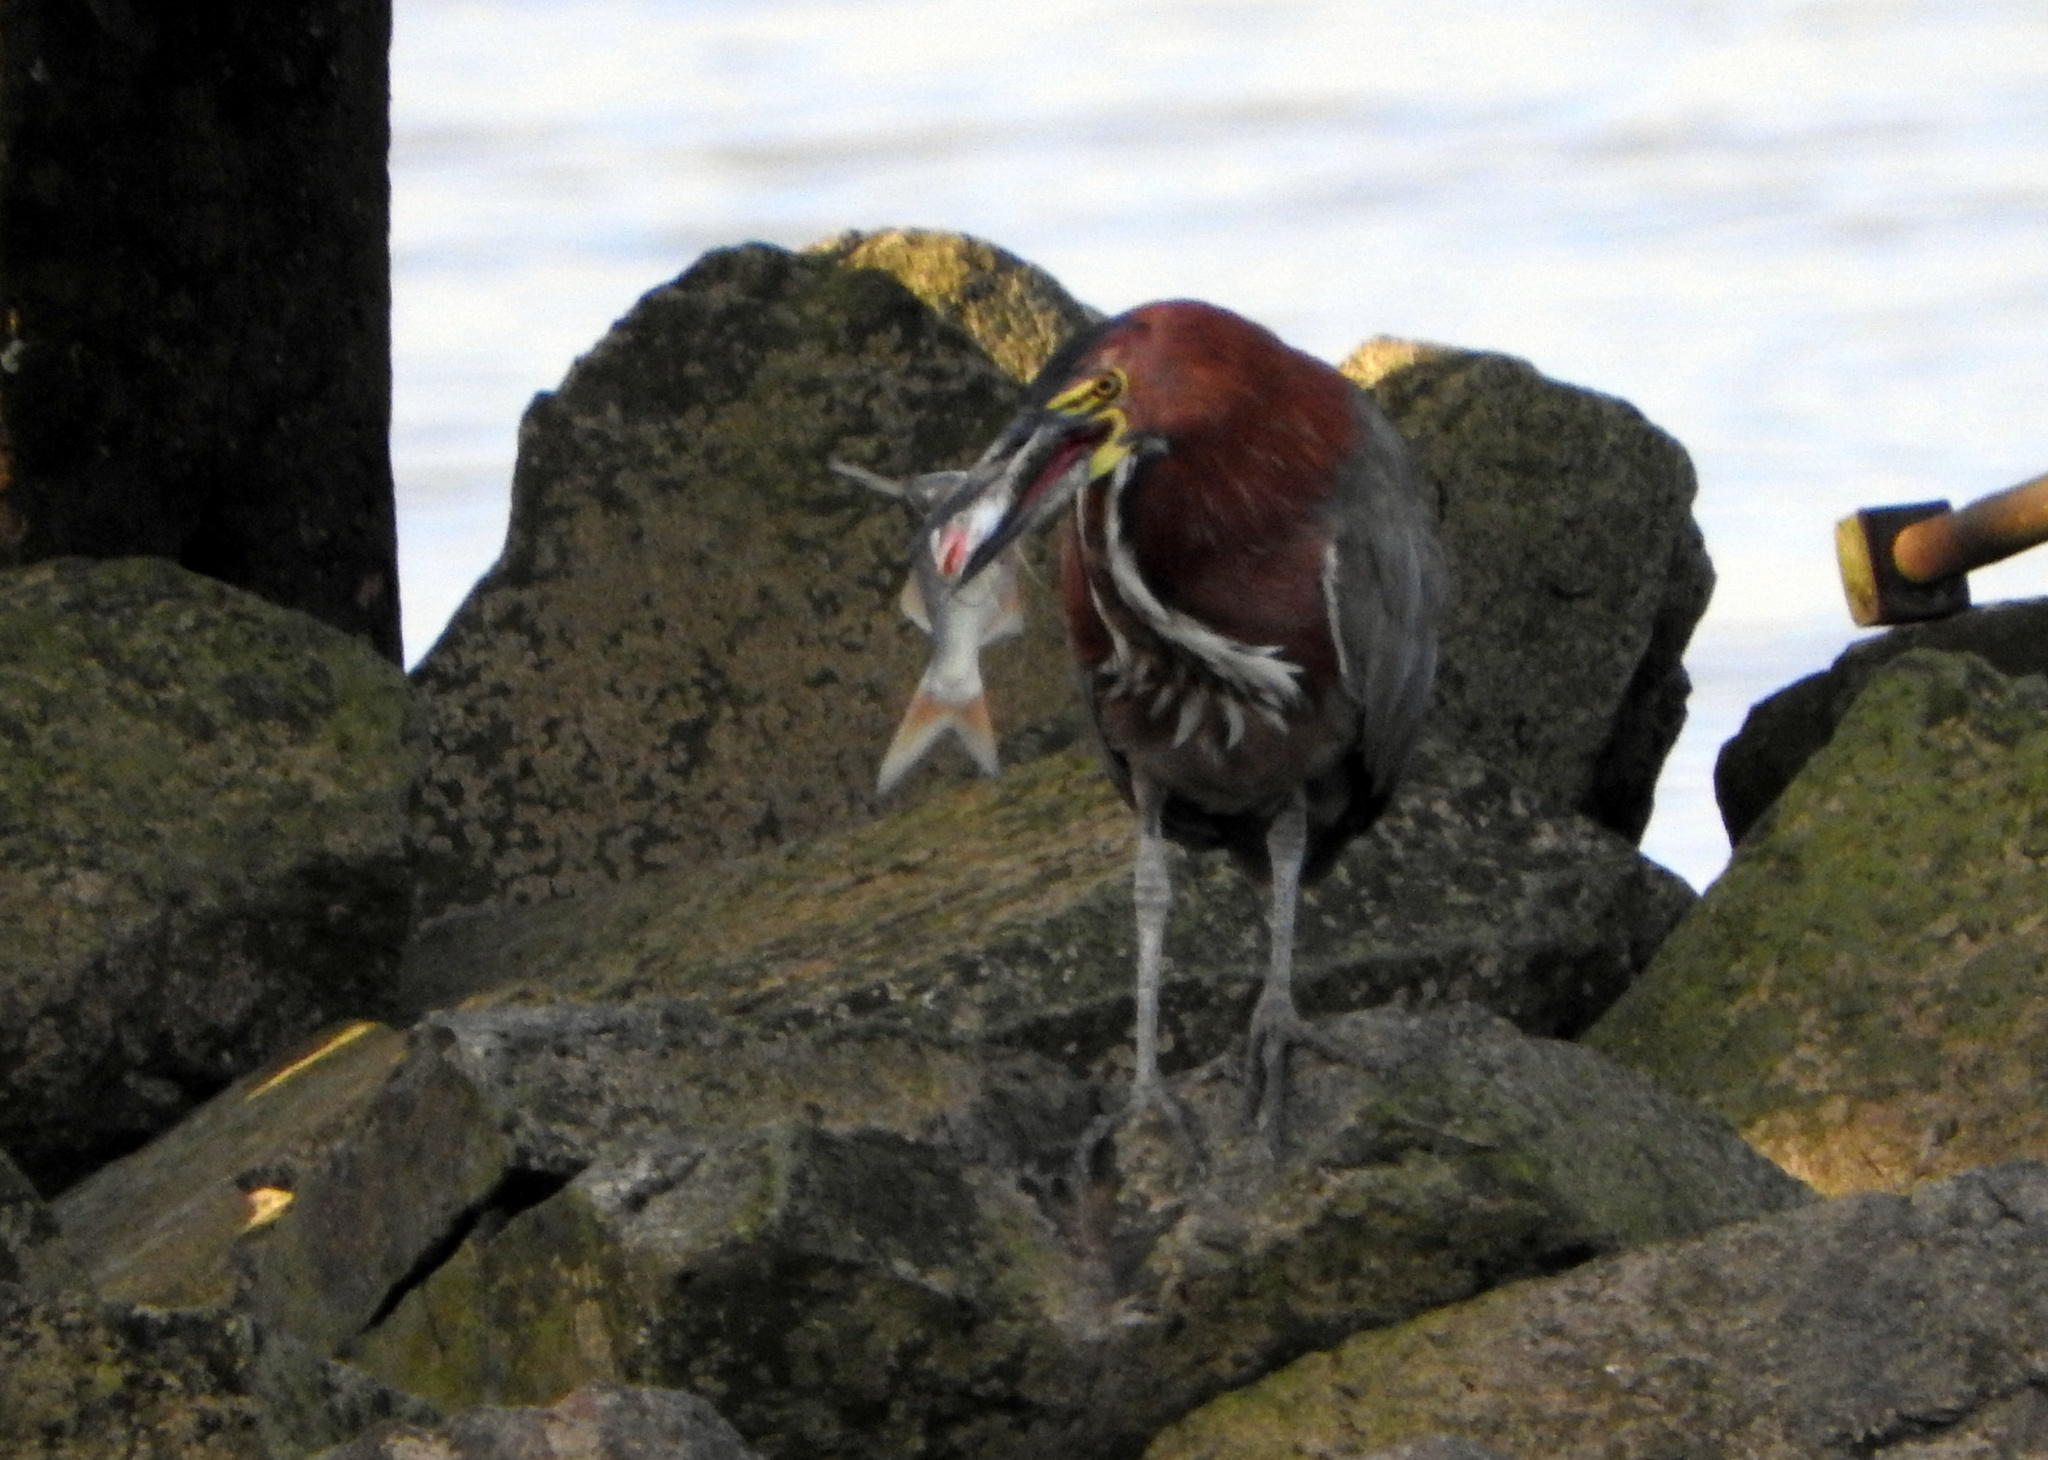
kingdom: Animalia
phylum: Chordata
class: Aves
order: Pelecaniformes
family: Ardeidae
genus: Tigrisoma
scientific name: Tigrisoma lineatum
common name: Rufescent tiger-heron
